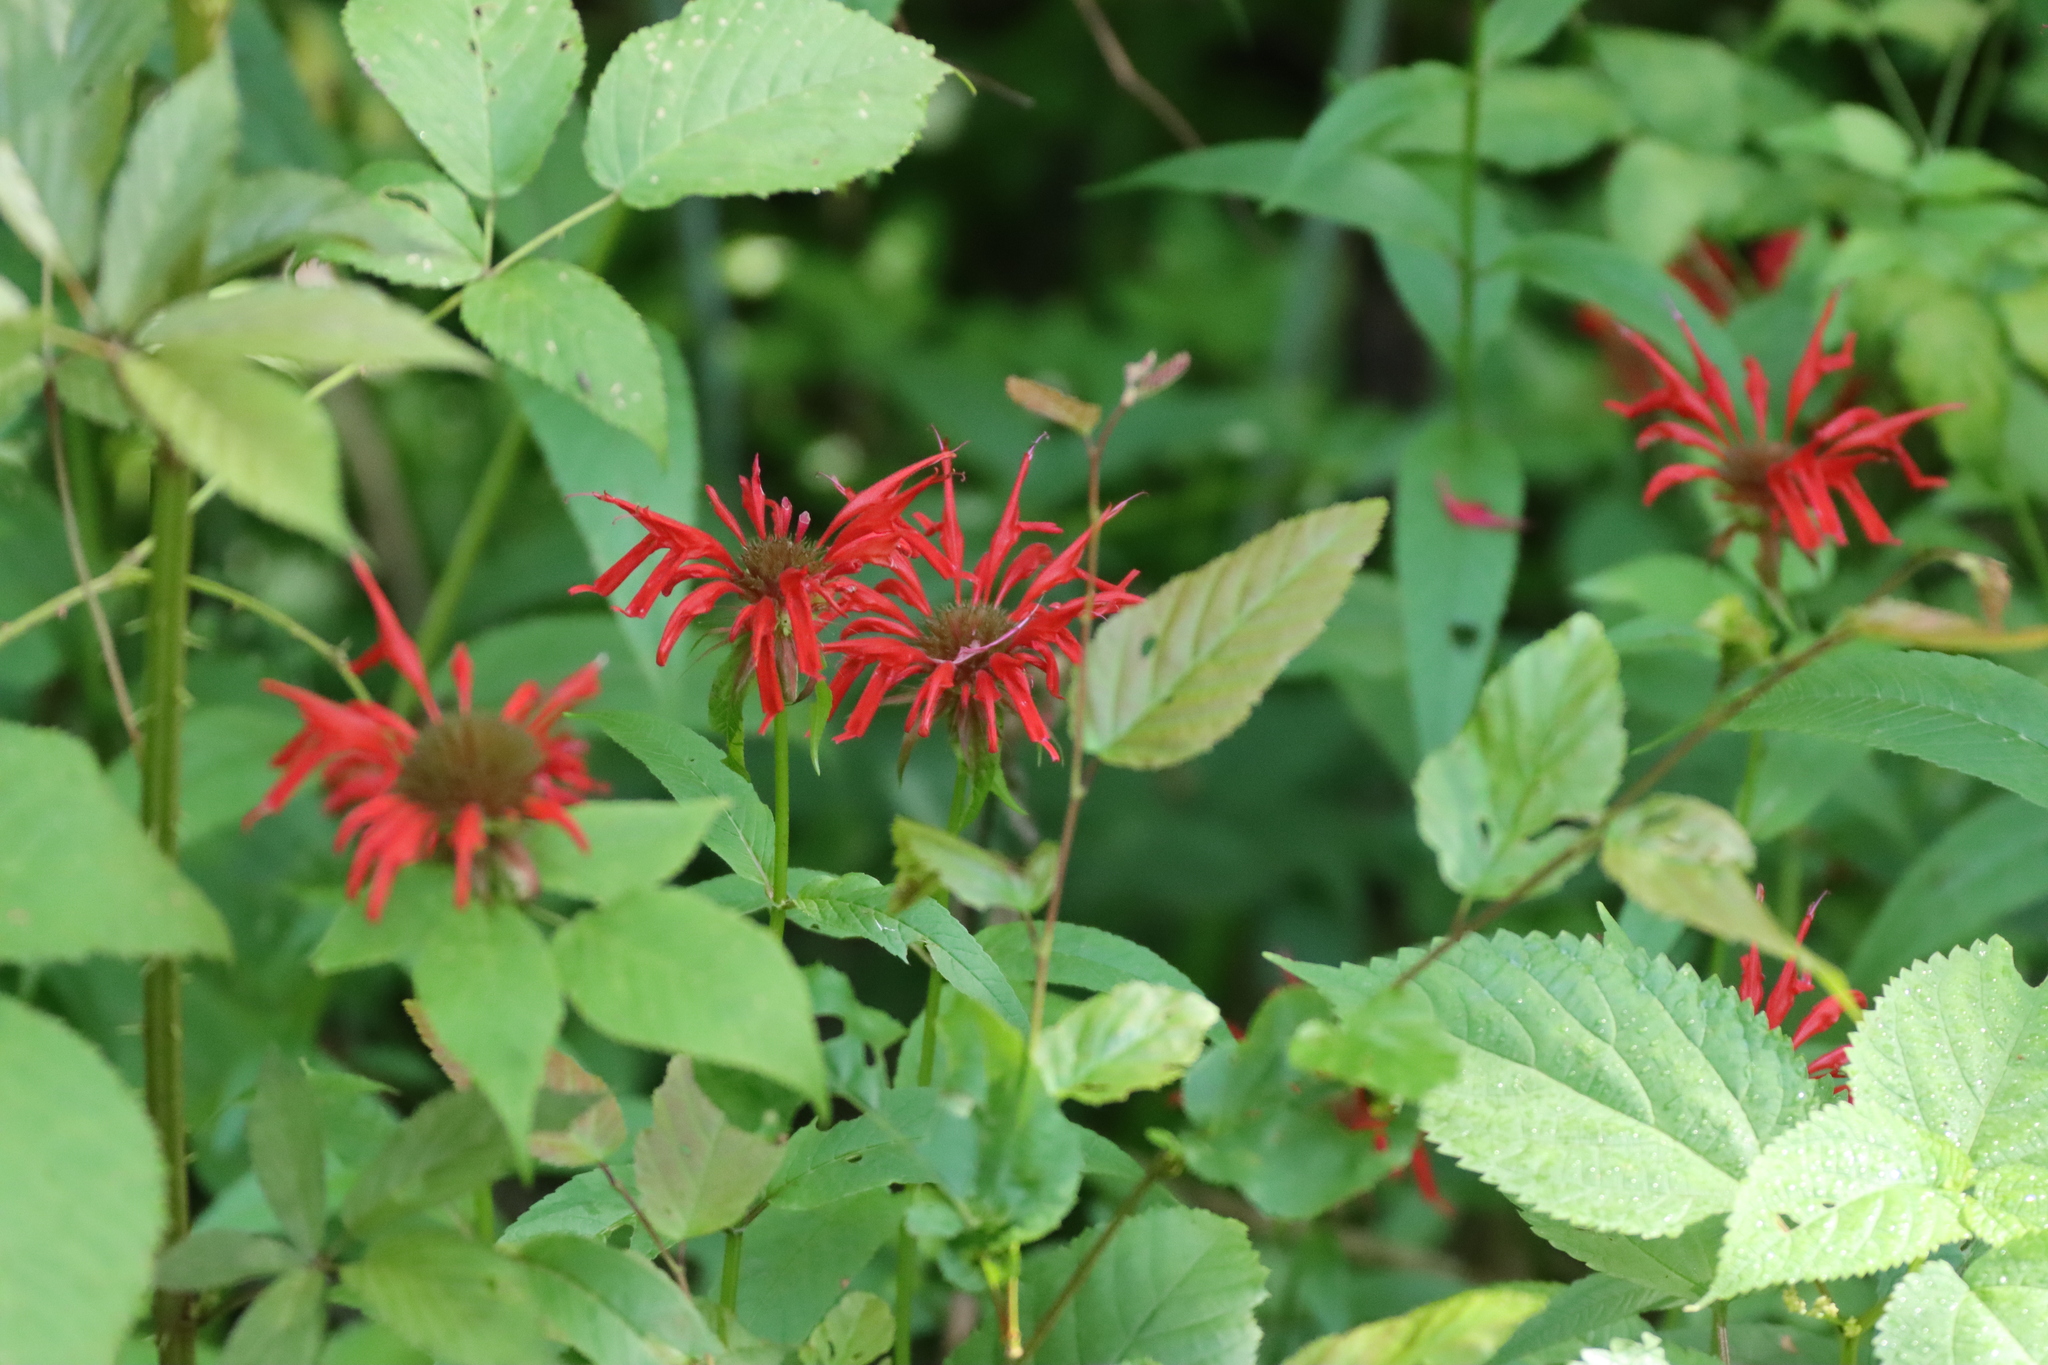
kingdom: Plantae
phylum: Tracheophyta
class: Magnoliopsida
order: Lamiales
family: Lamiaceae
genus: Monarda
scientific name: Monarda didyma
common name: Beebalm
